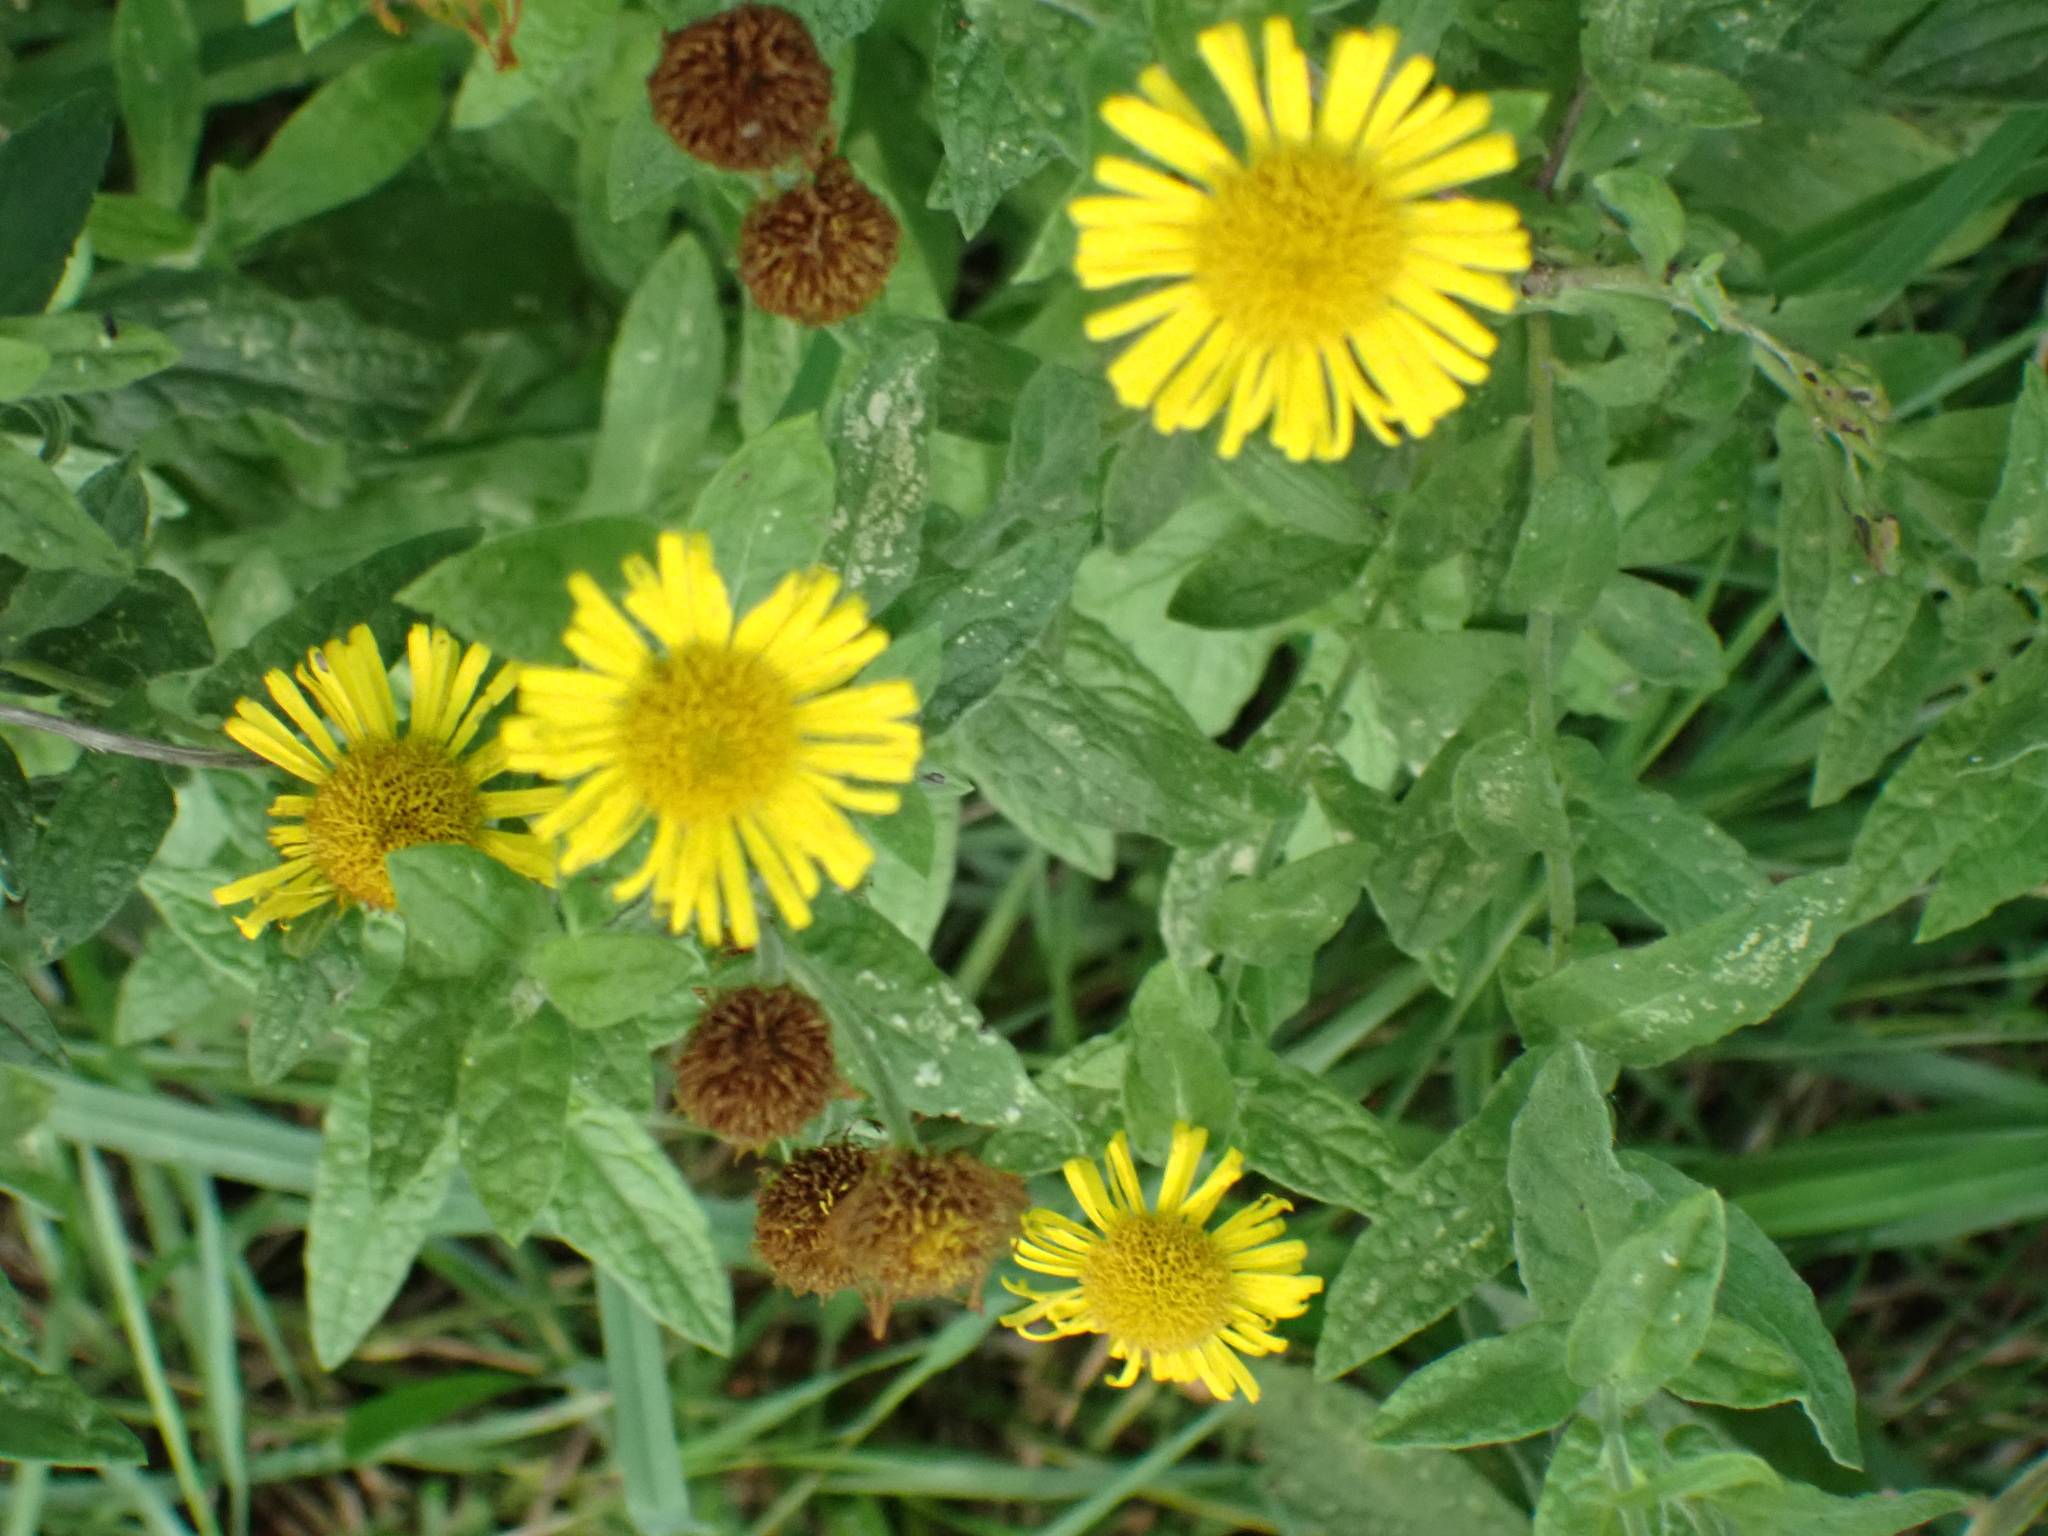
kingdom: Plantae
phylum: Tracheophyta
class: Magnoliopsida
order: Asterales
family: Asteraceae
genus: Pulicaria
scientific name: Pulicaria dysenterica
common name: Common fleabane
